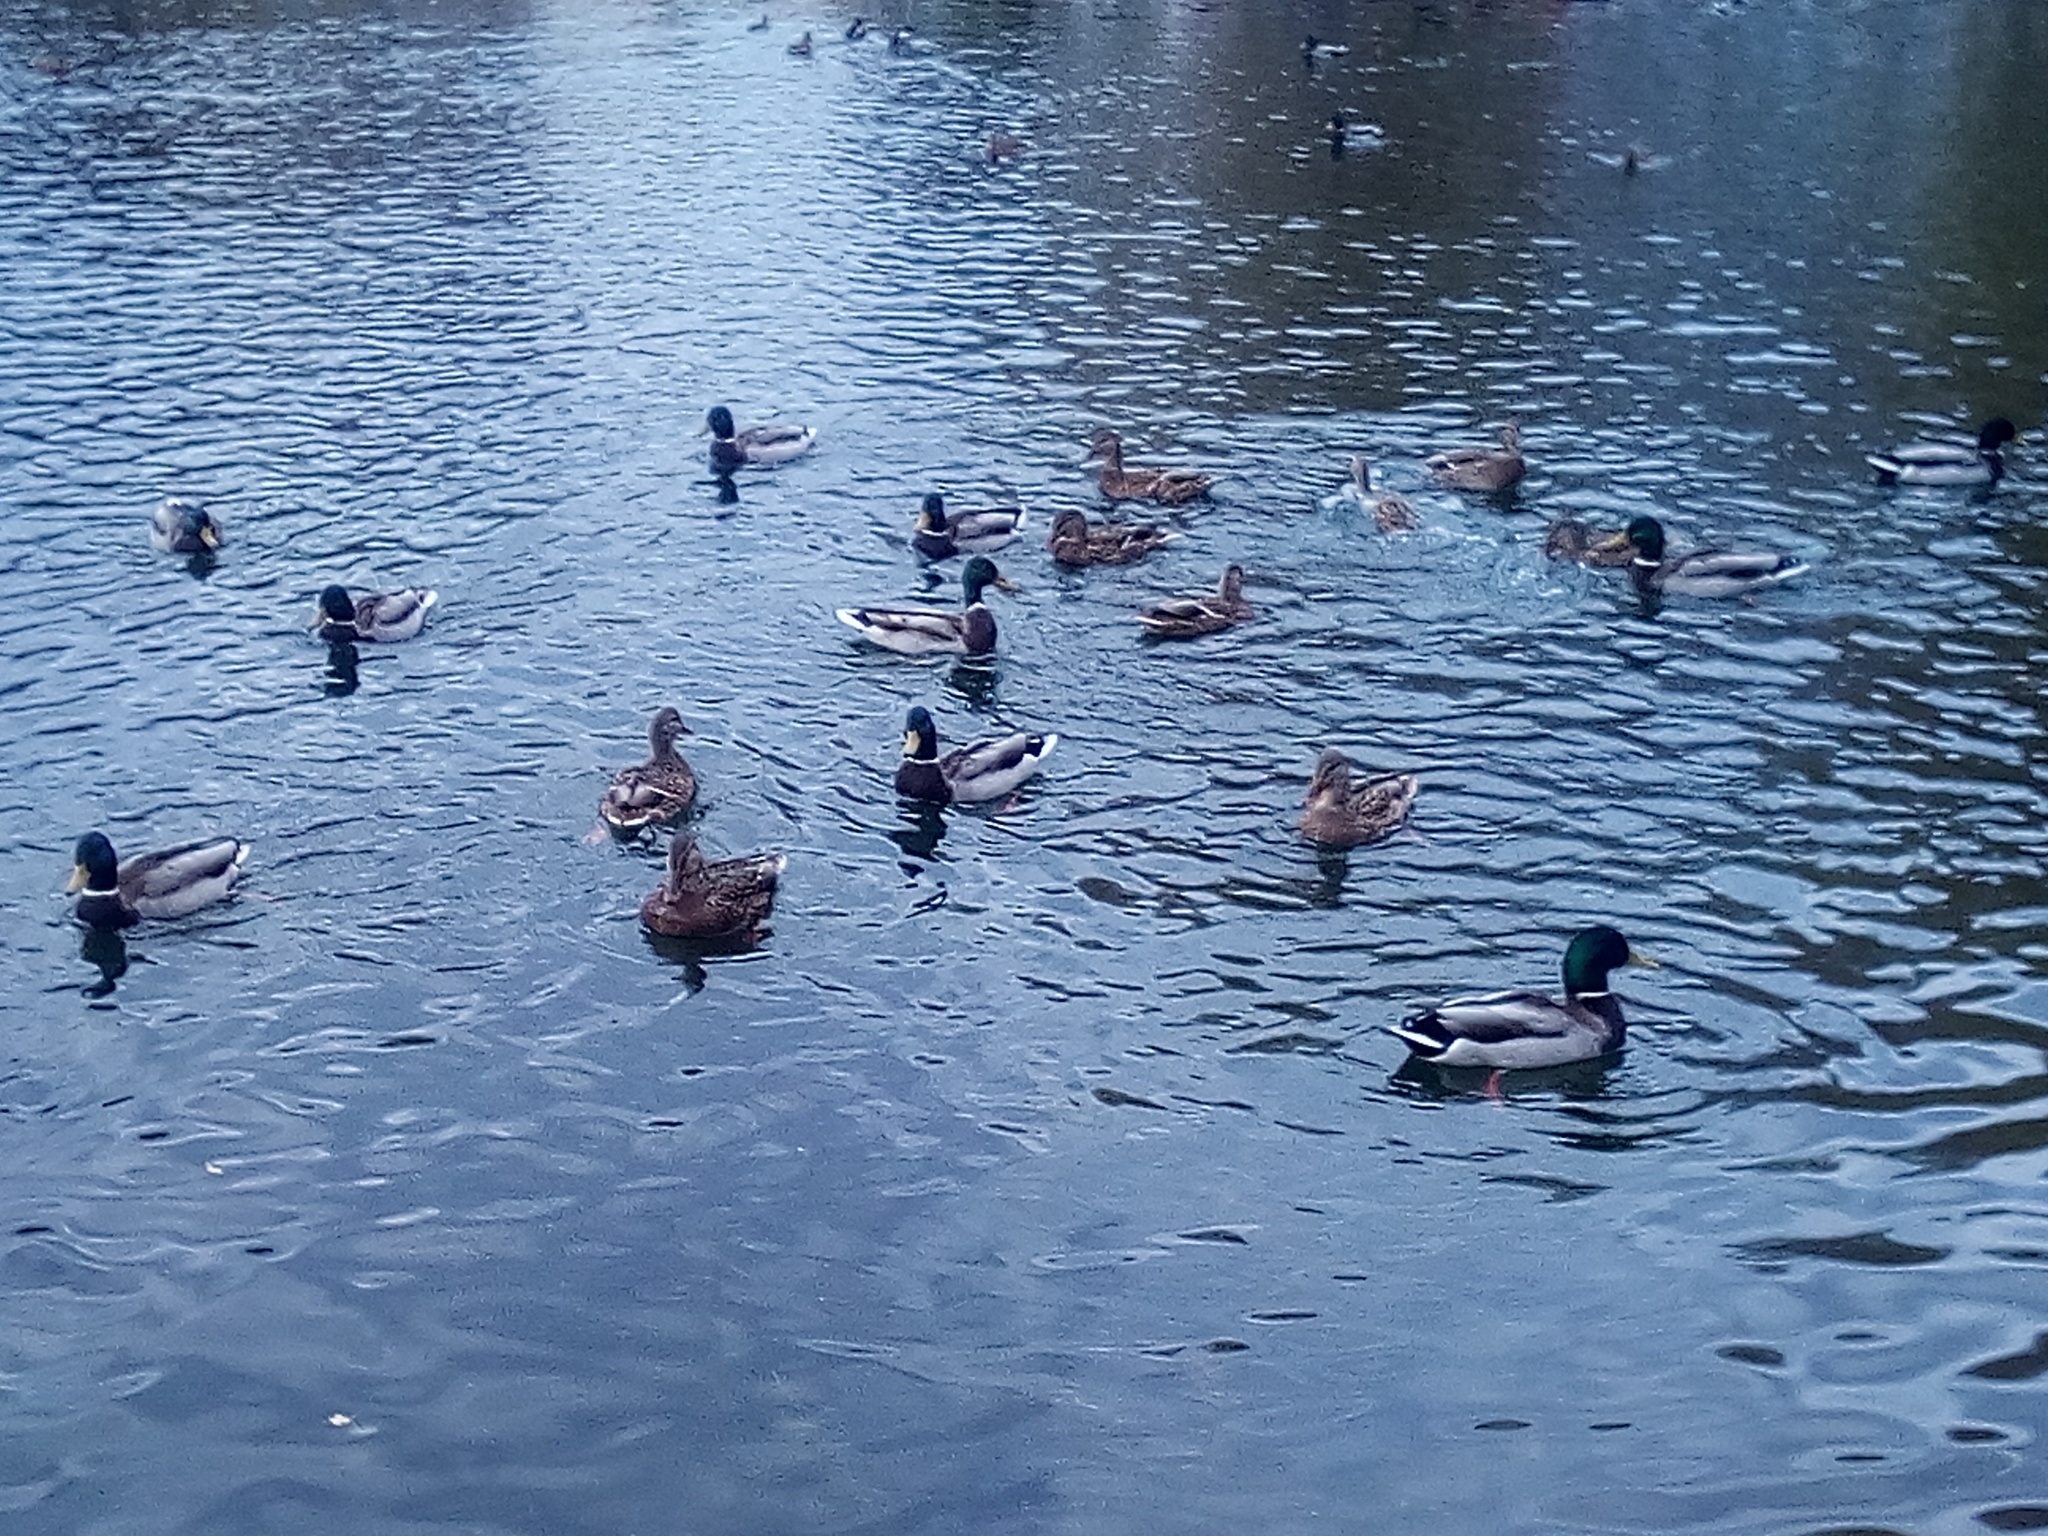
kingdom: Animalia
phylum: Chordata
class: Aves
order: Anseriformes
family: Anatidae
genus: Anas
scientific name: Anas platyrhynchos
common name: Mallard
